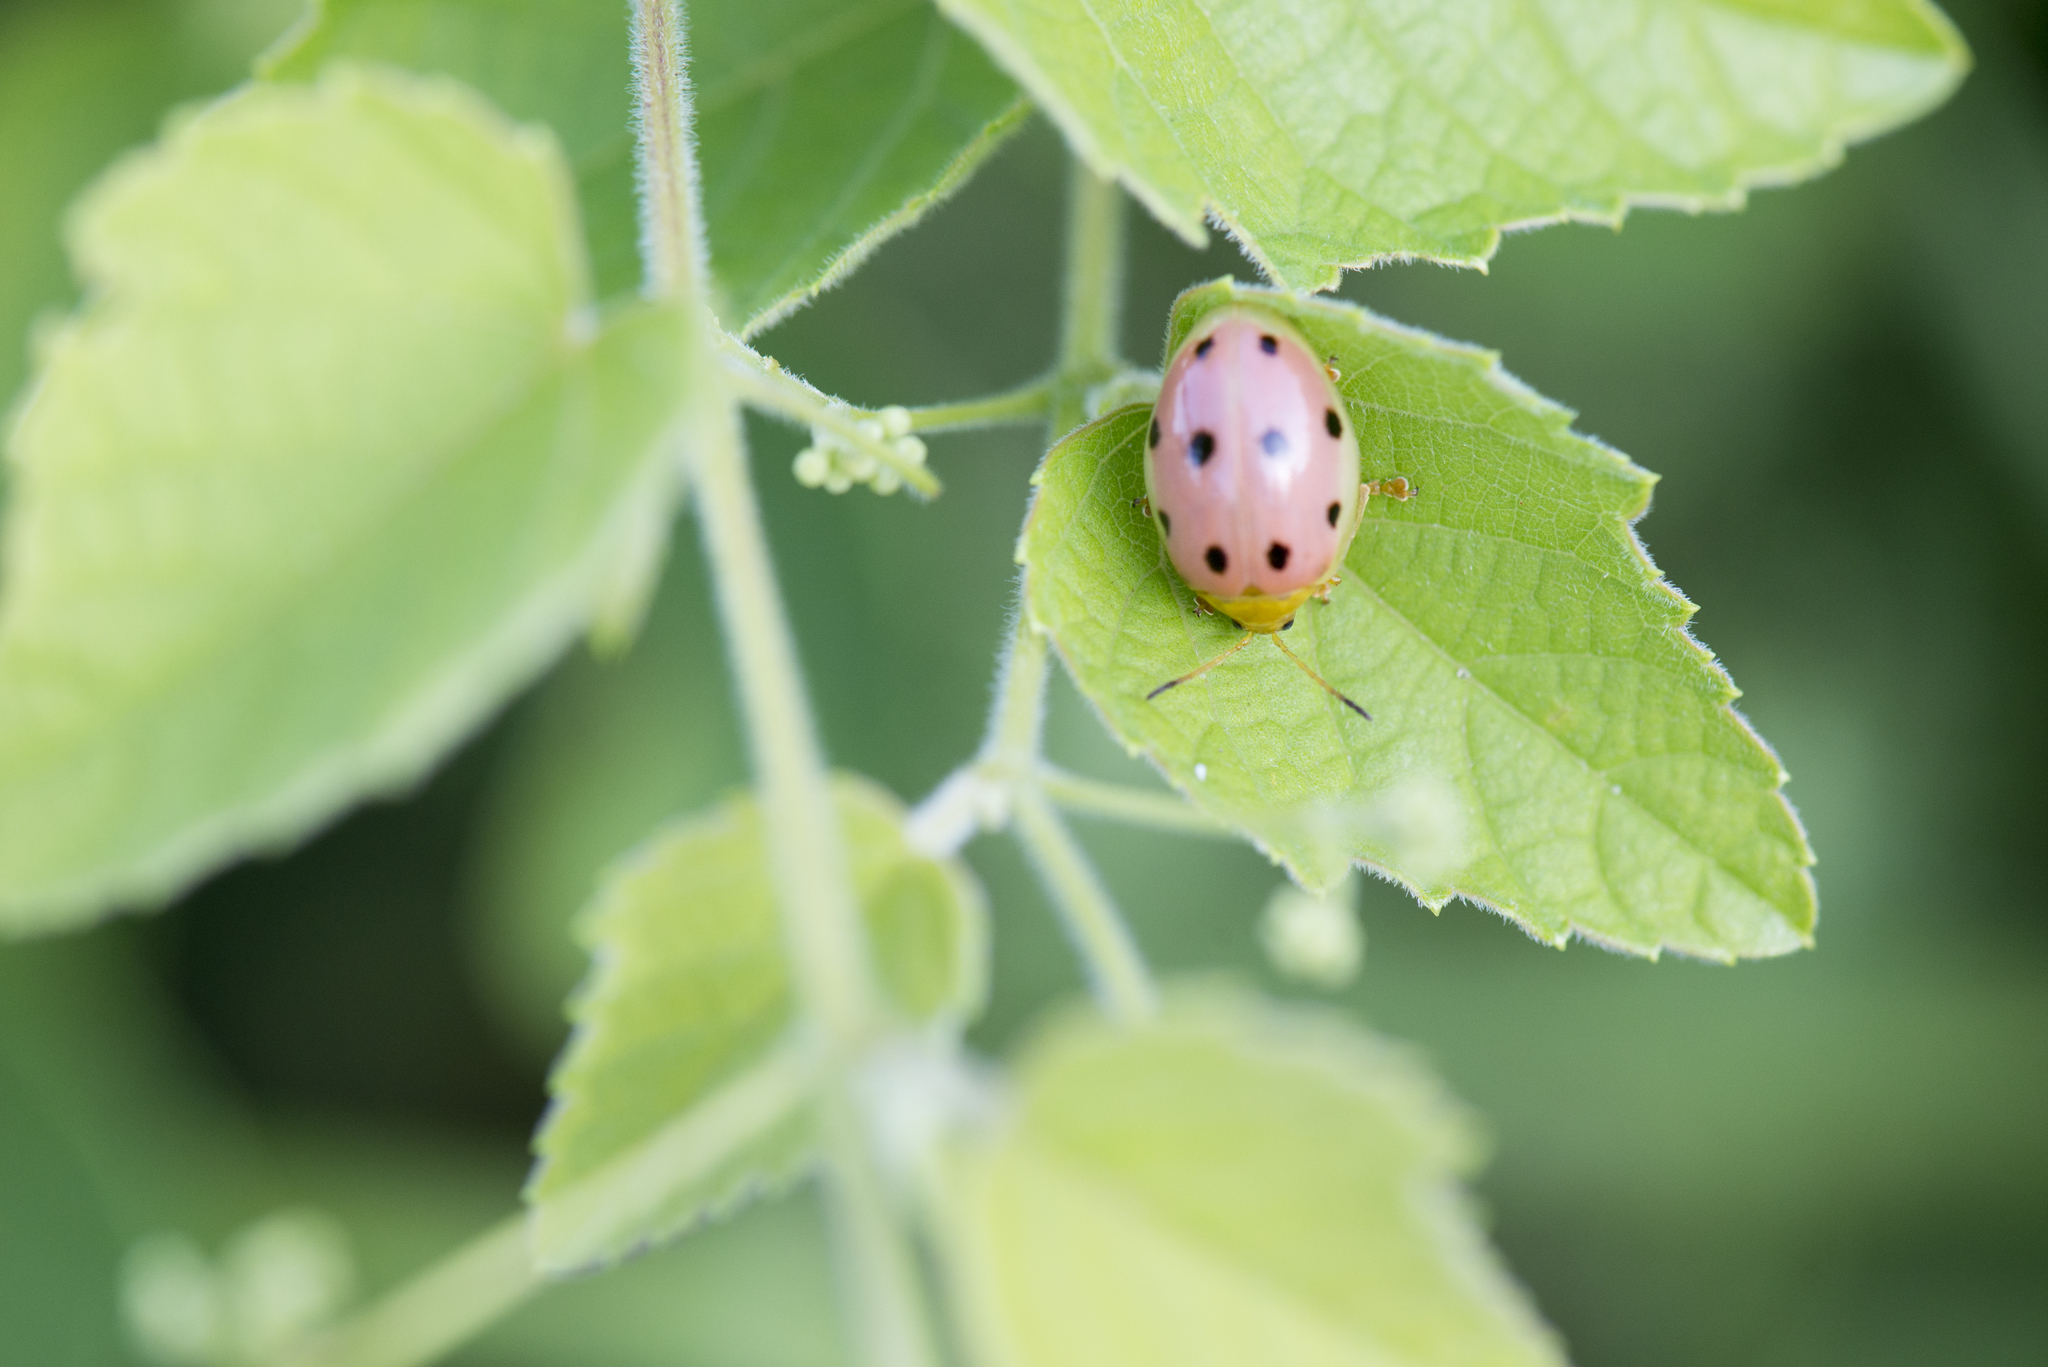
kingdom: Animalia
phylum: Arthropoda
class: Insecta
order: Coleoptera
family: Chrysomelidae
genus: Oides
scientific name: Oides decempunctata
